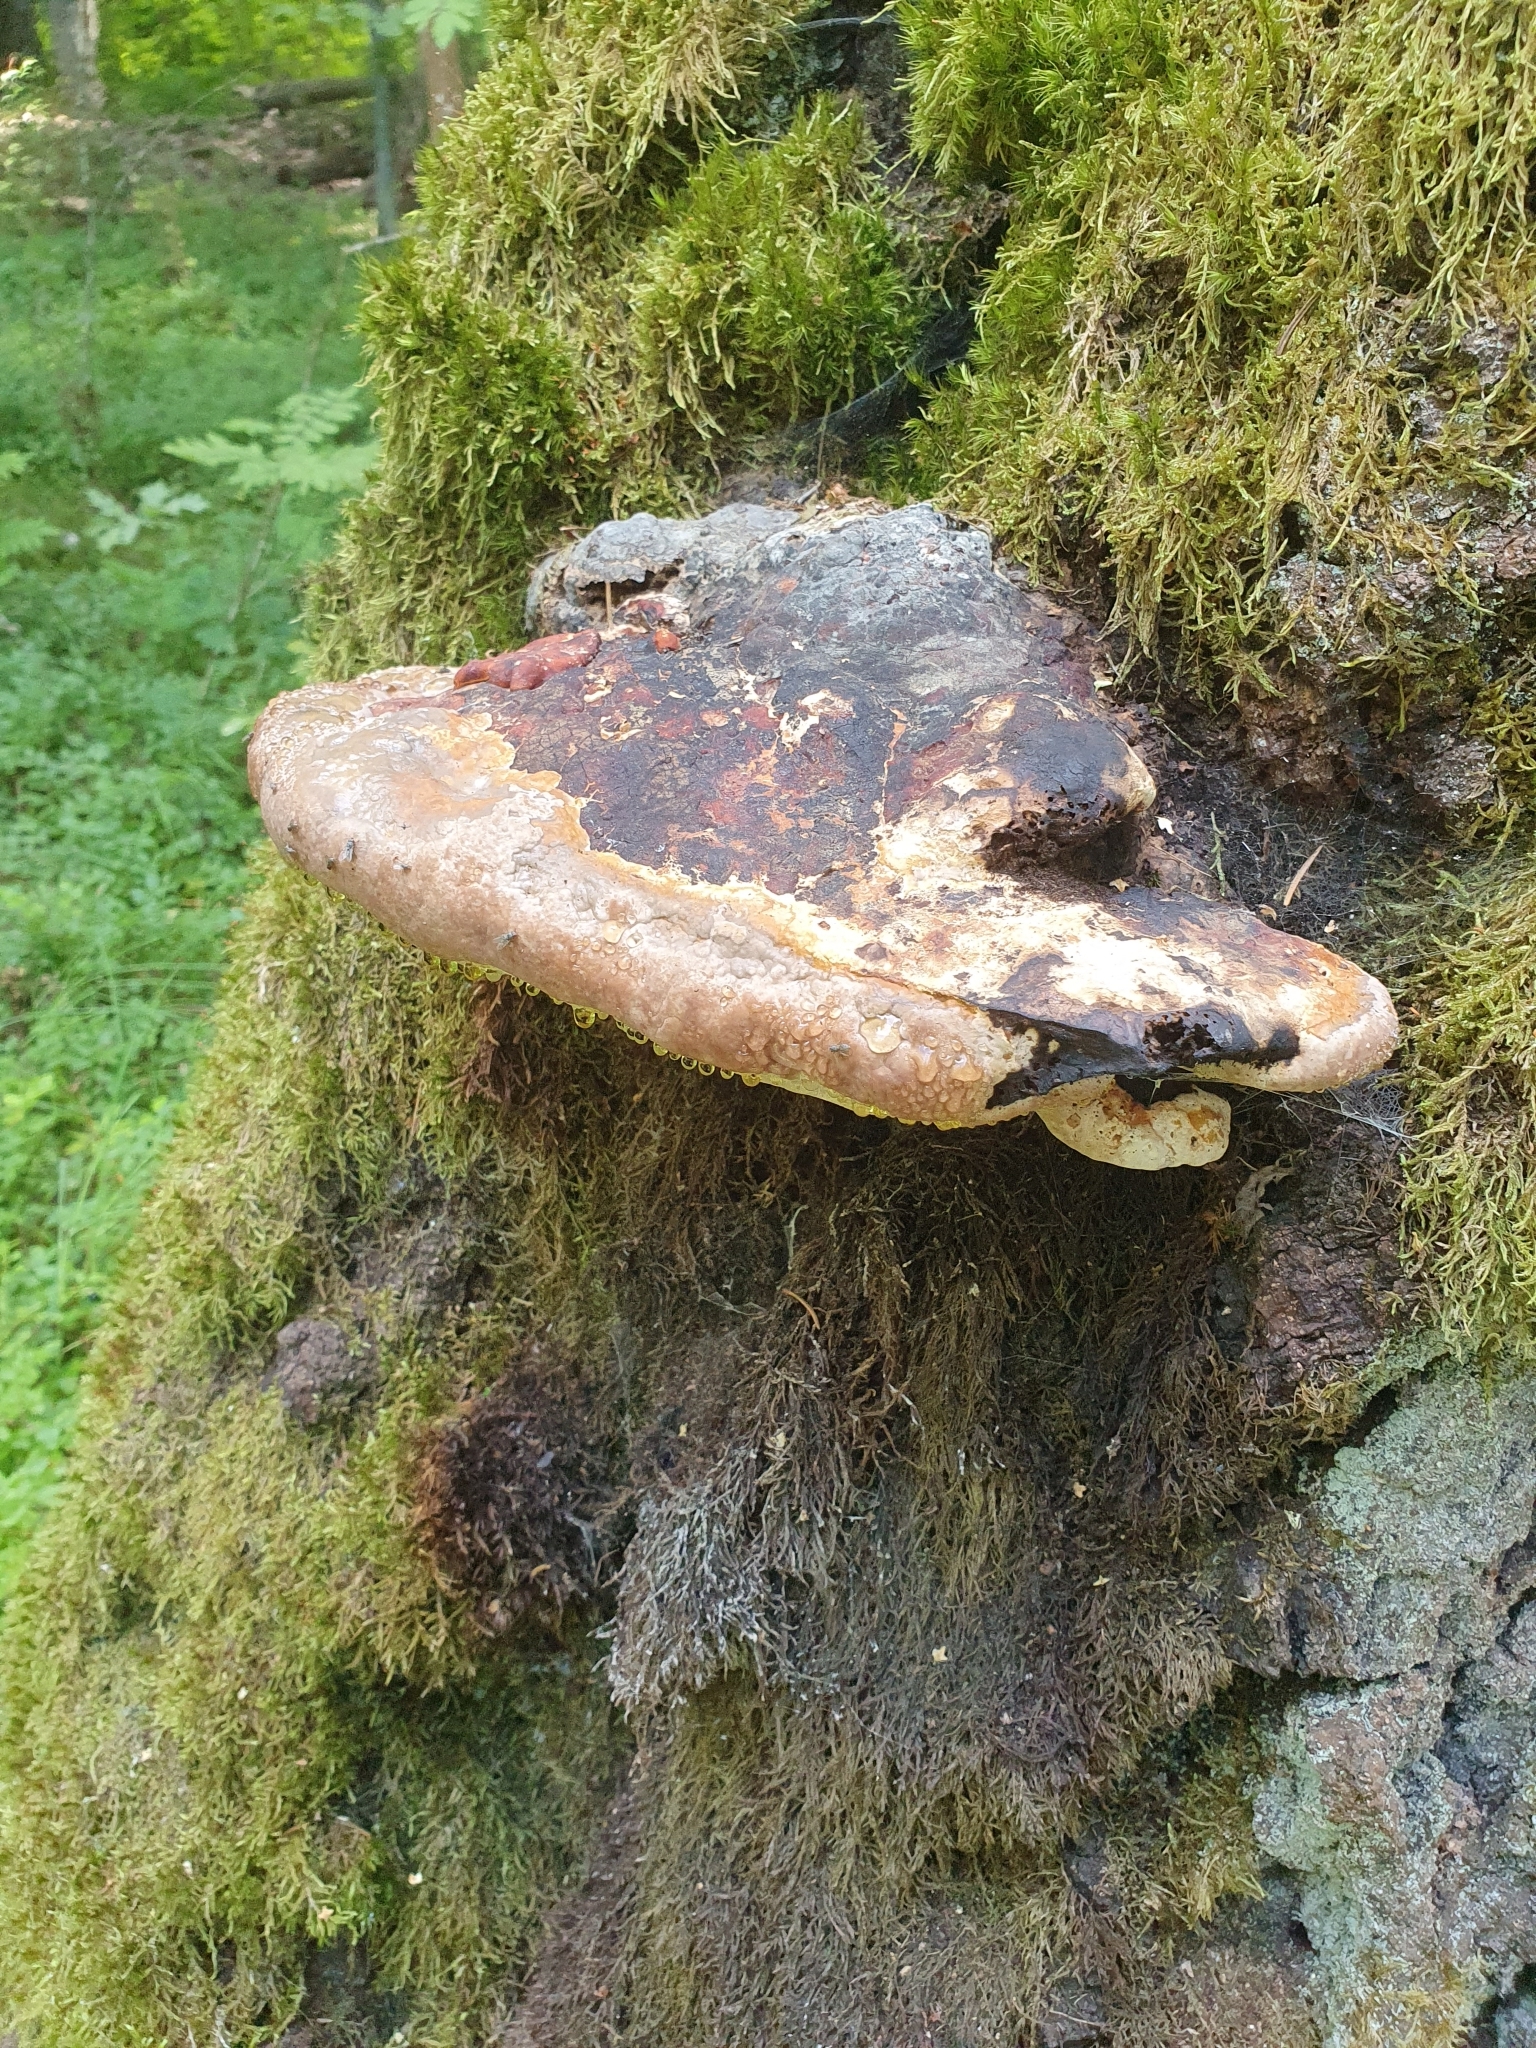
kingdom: Fungi
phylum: Basidiomycota
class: Agaricomycetes
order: Polyporales
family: Fomitopsidaceae
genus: Fomitopsis
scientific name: Fomitopsis pinicola
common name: Red-belted bracket
